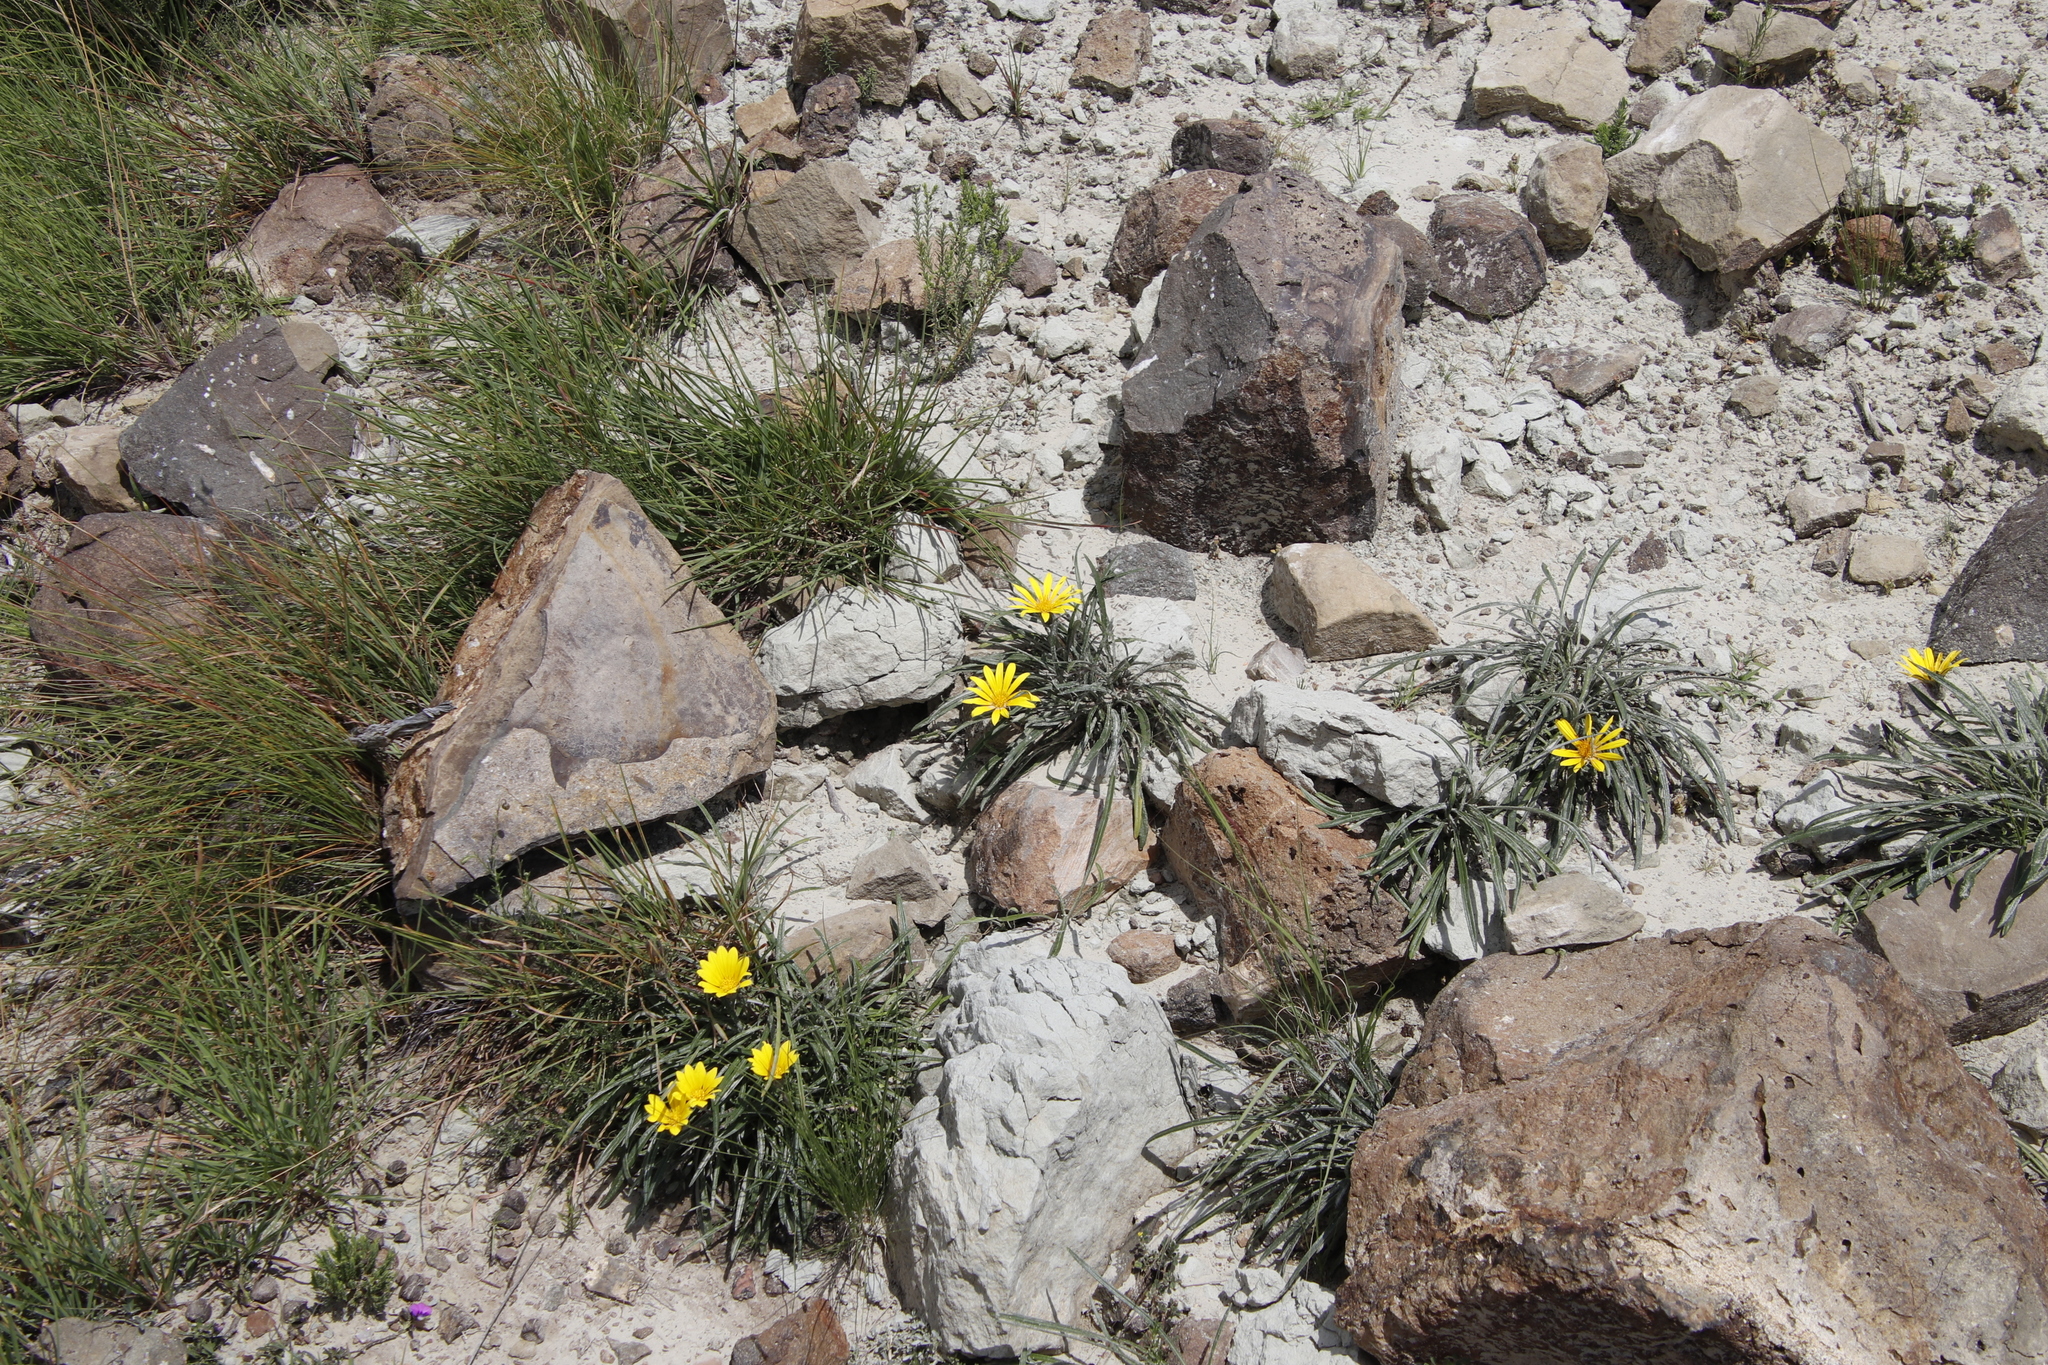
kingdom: Plantae
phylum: Tracheophyta
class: Magnoliopsida
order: Asterales
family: Asteraceae
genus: Gazania
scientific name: Gazania krebsiana
